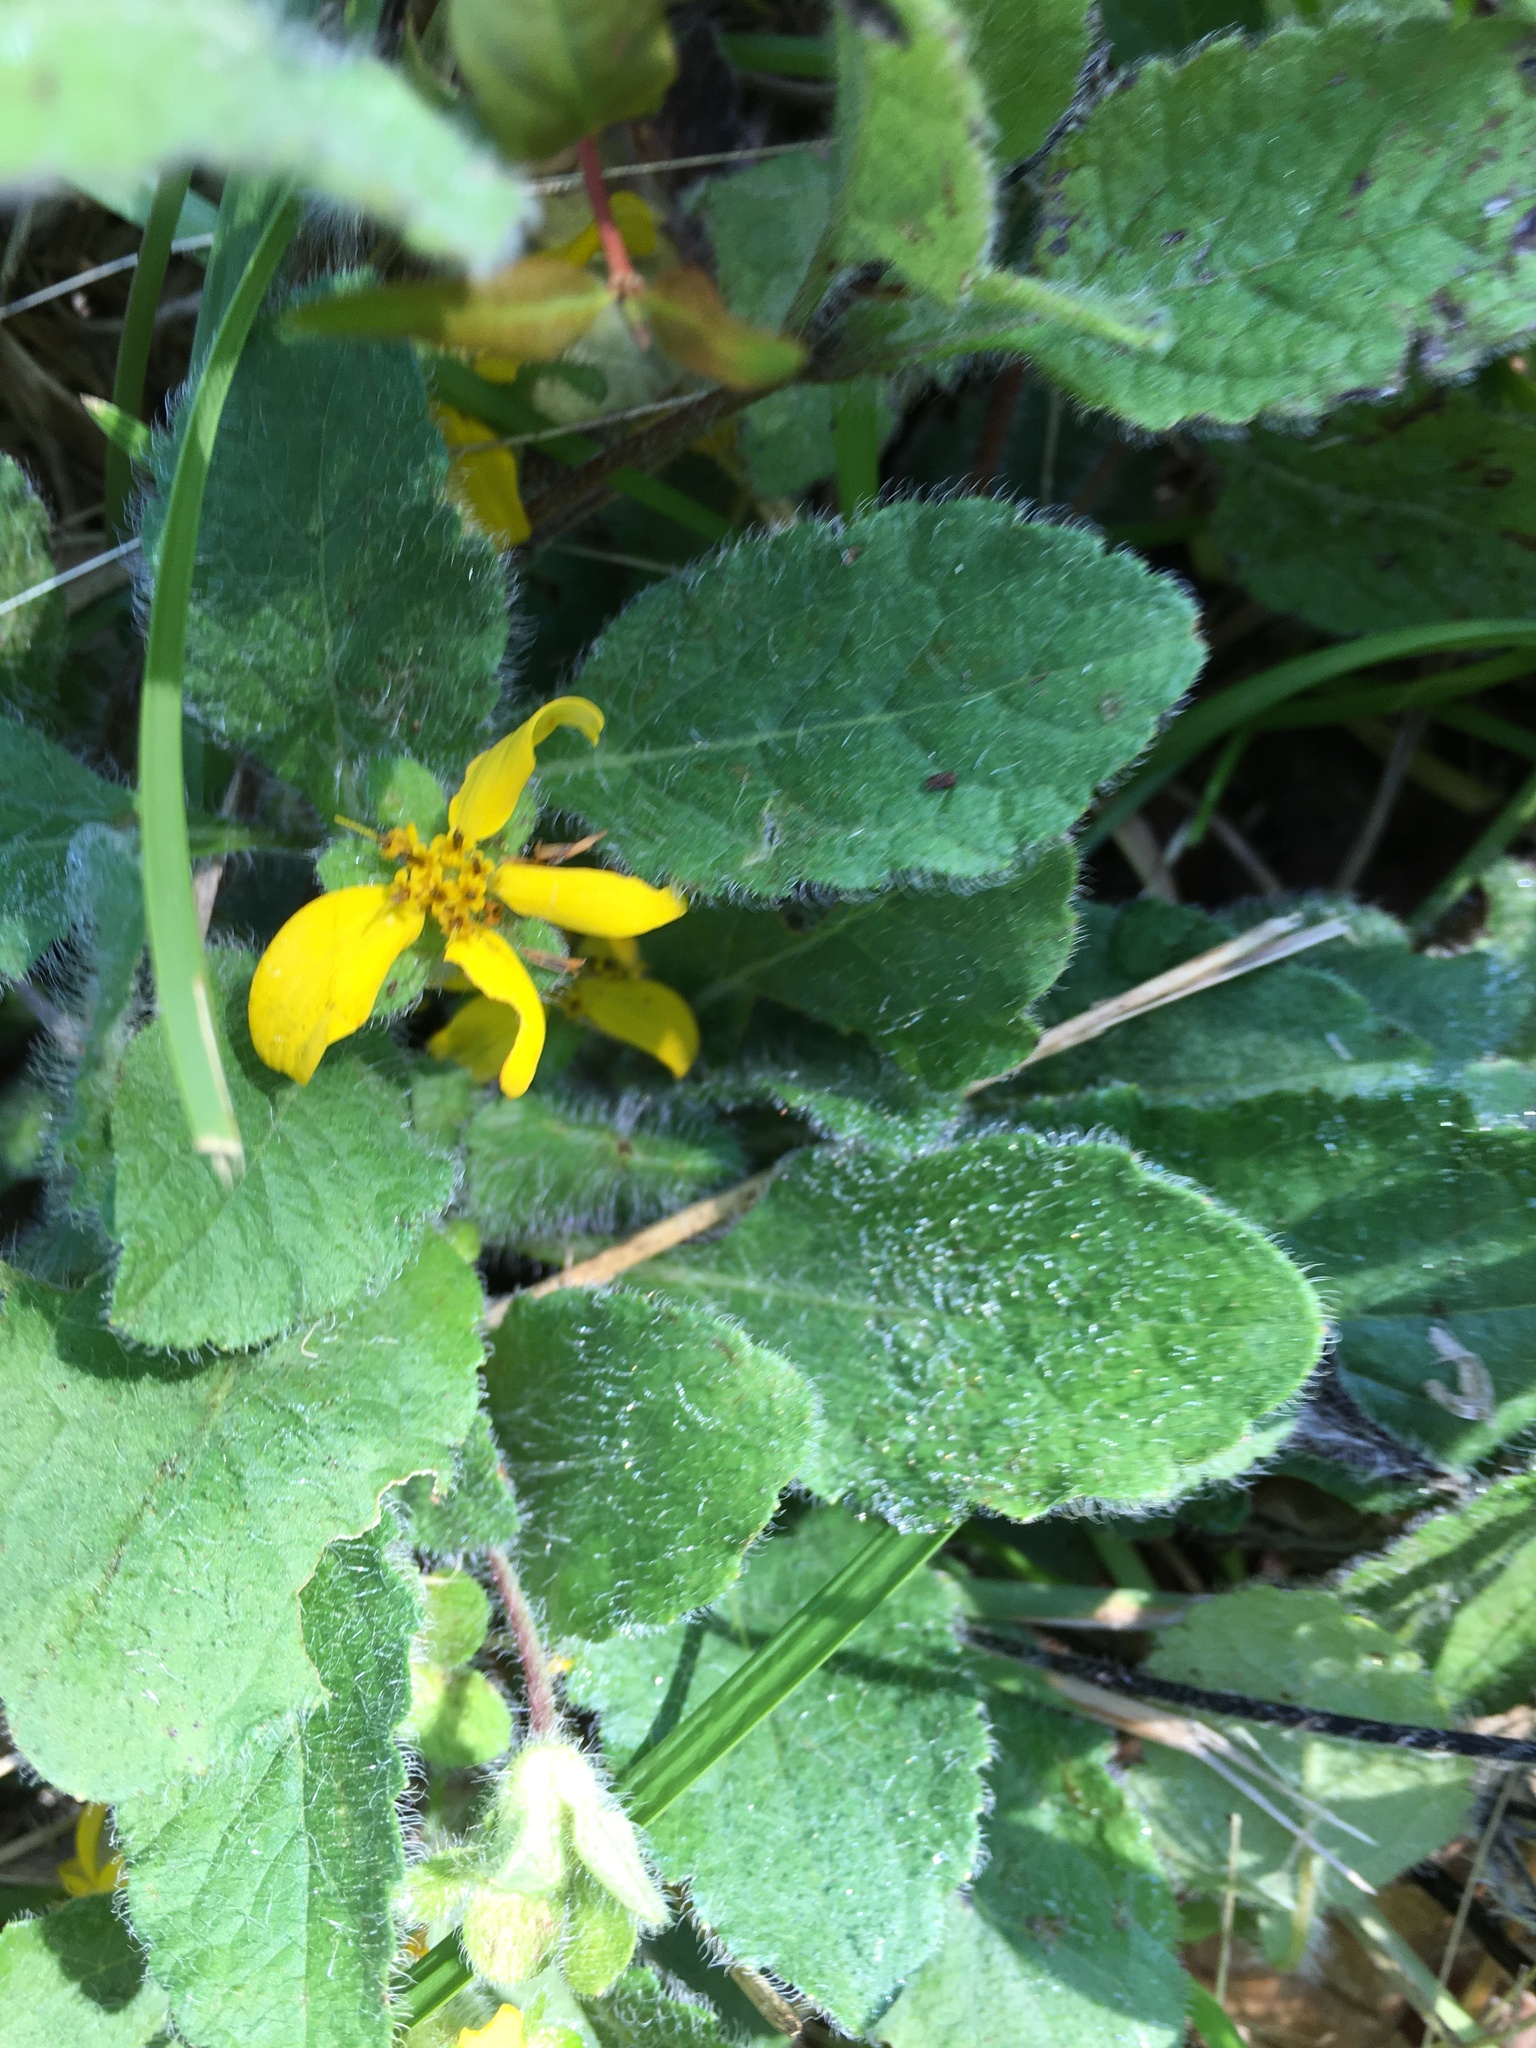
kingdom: Plantae
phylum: Tracheophyta
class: Magnoliopsida
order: Asterales
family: Asteraceae
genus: Chrysogonum
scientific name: Chrysogonum virginianum
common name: Golden-knee
